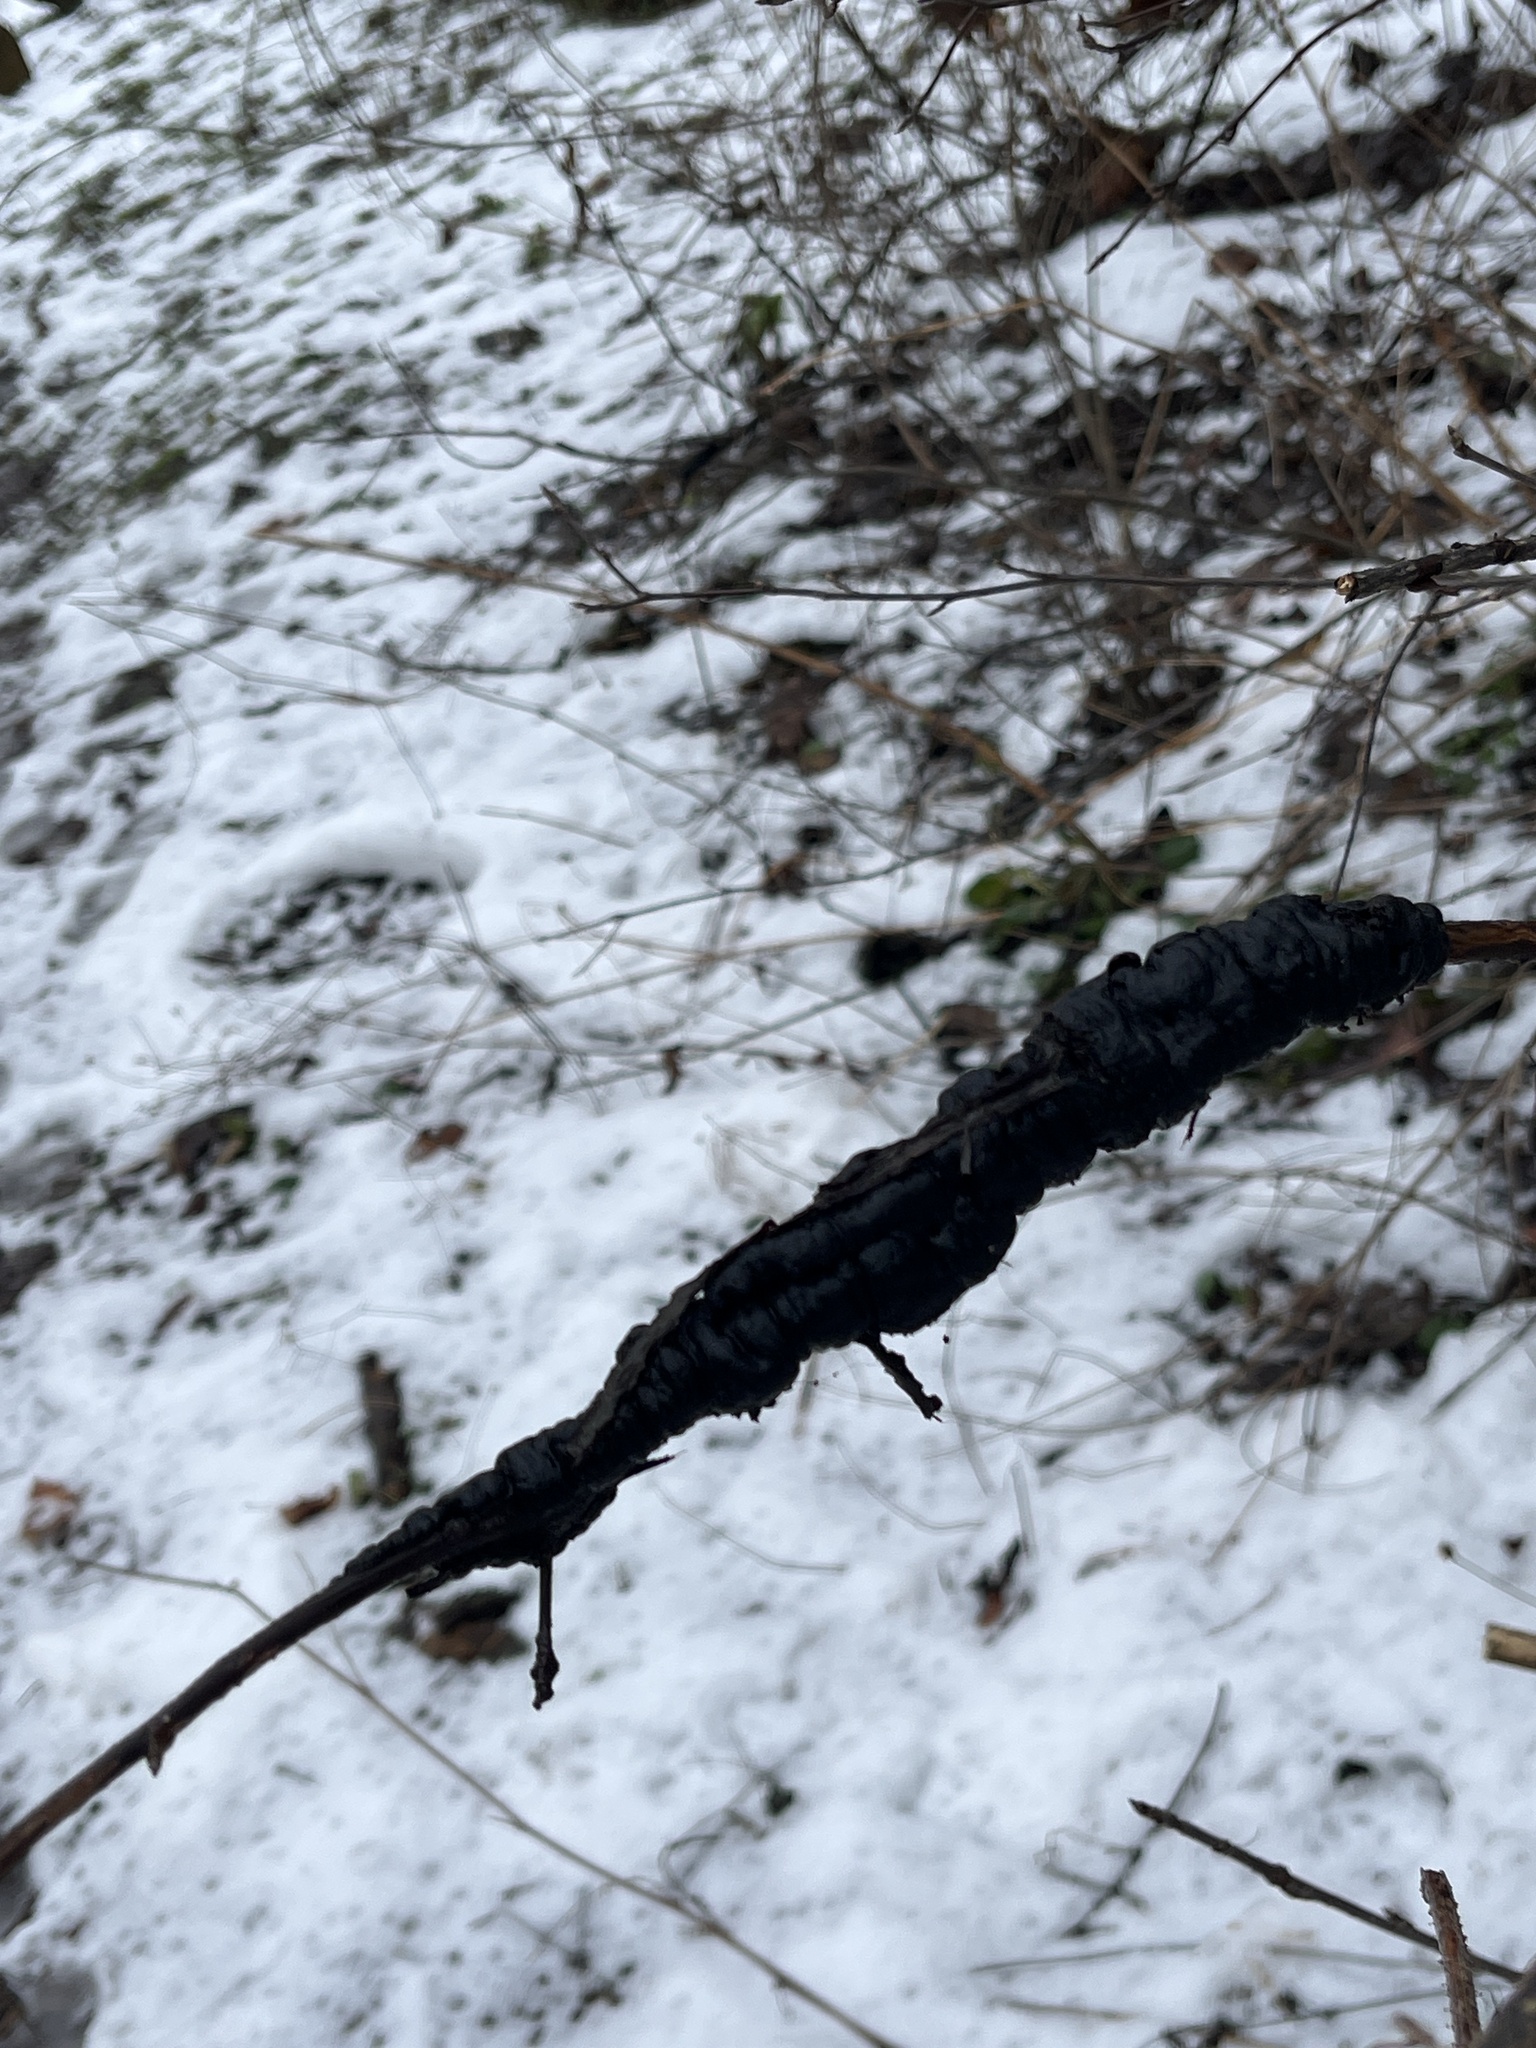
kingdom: Fungi
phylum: Ascomycota
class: Dothideomycetes
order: Venturiales
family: Venturiaceae
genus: Apiosporina
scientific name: Apiosporina morbosa
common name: Black knot
